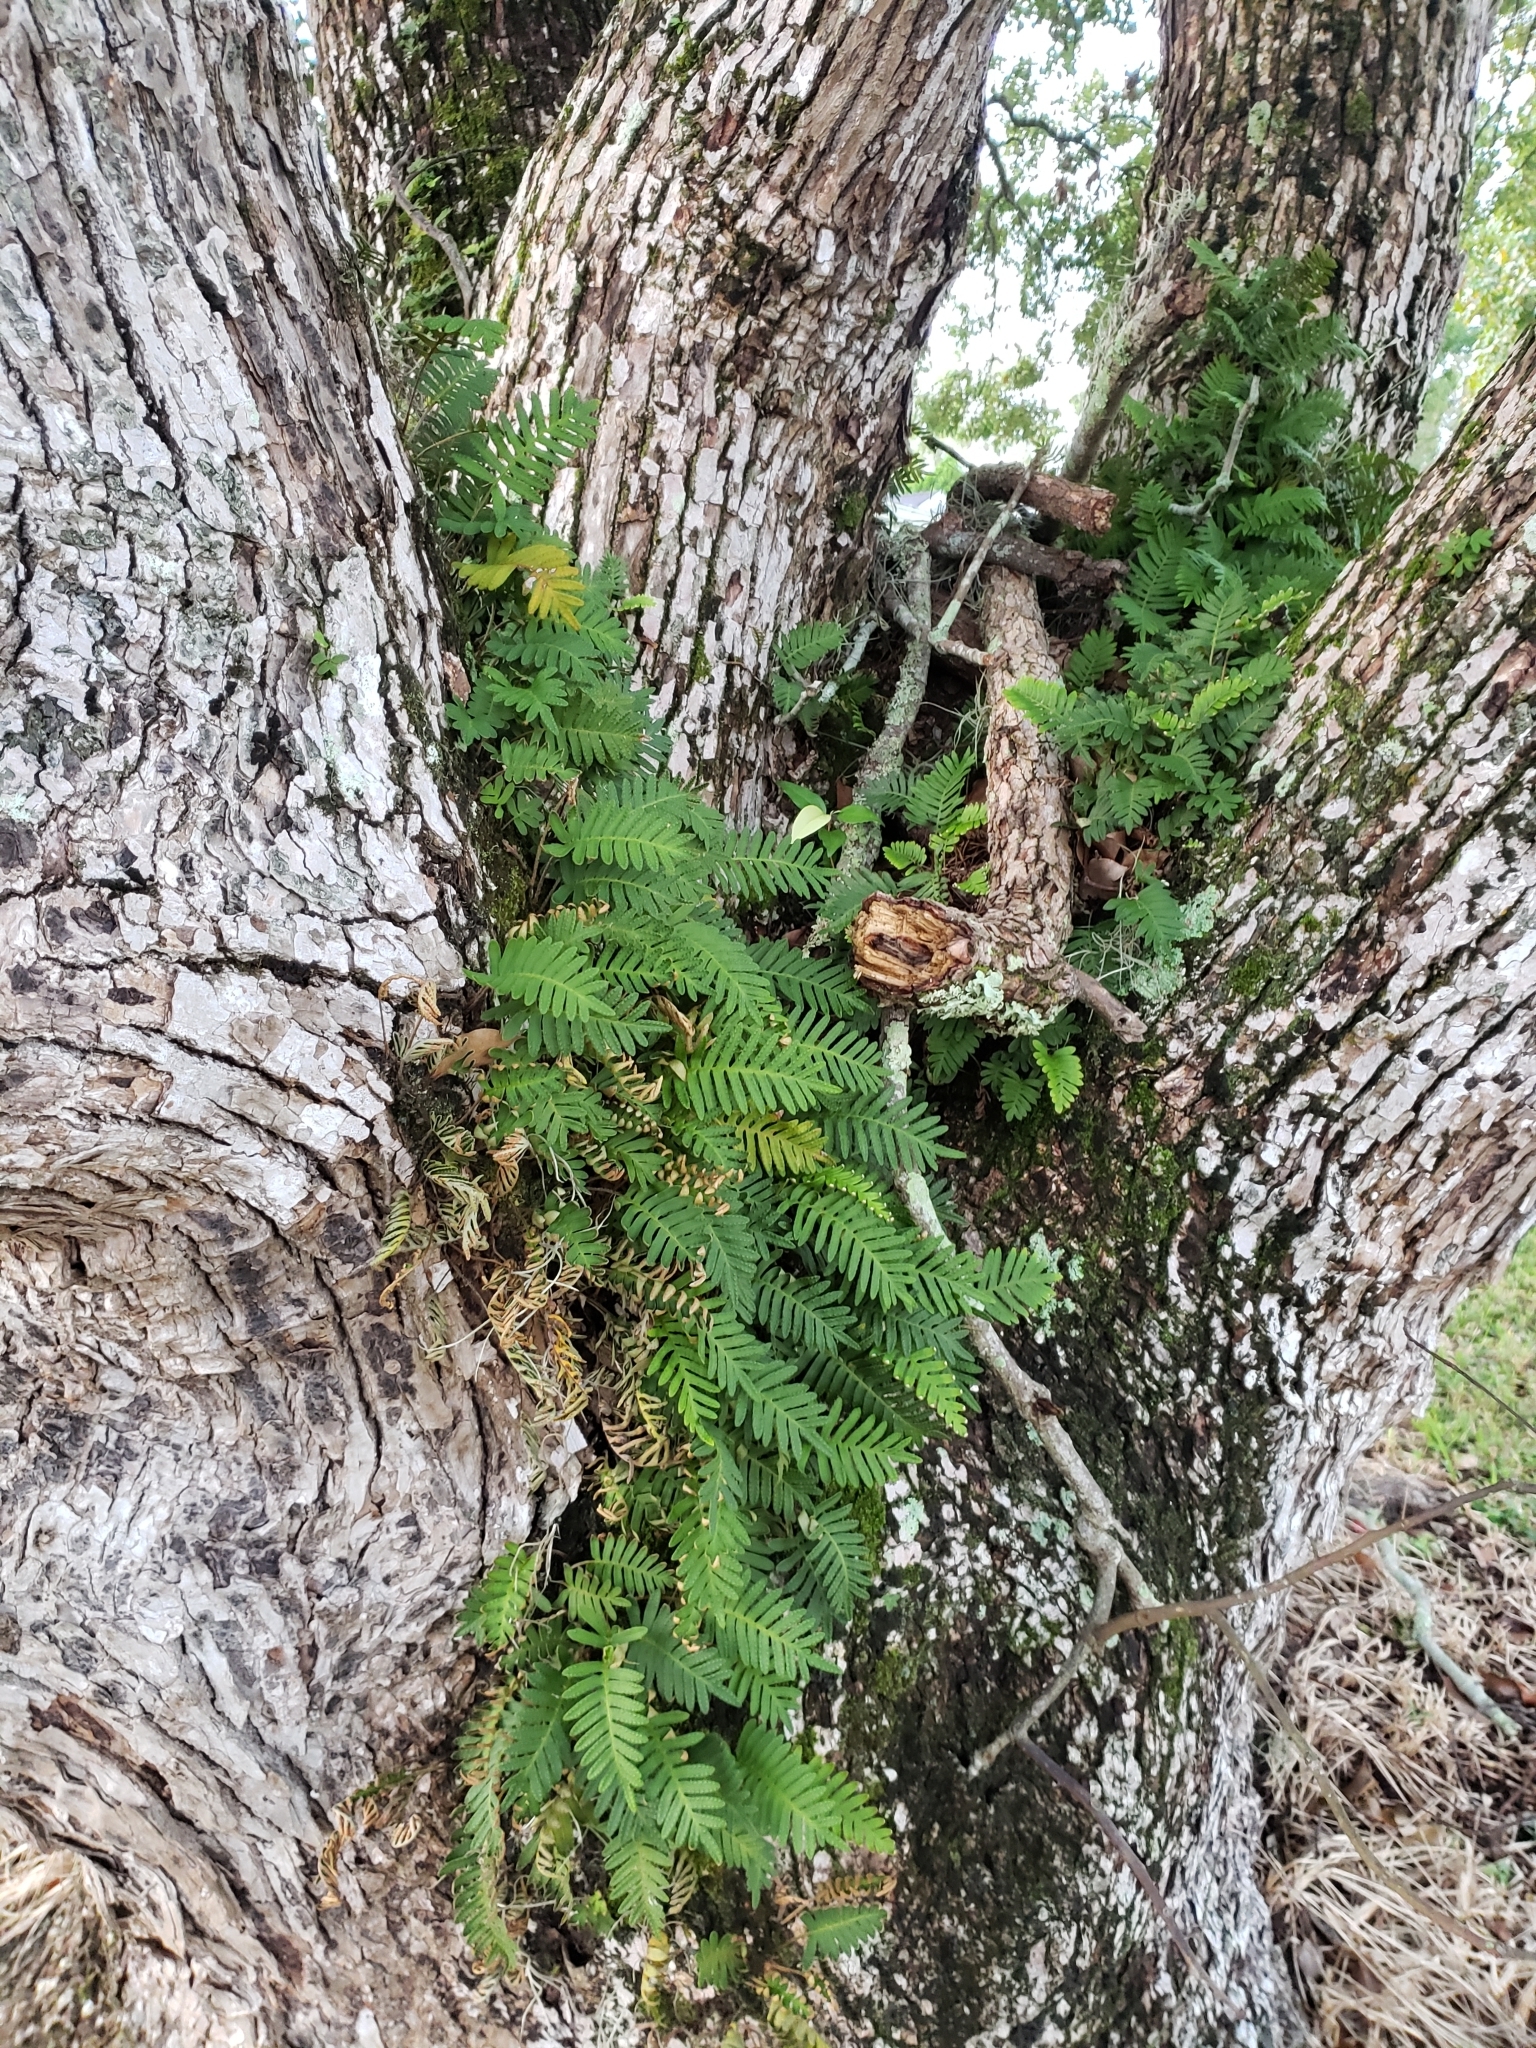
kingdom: Plantae
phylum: Tracheophyta
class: Polypodiopsida
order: Polypodiales
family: Polypodiaceae
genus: Pleopeltis
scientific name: Pleopeltis michauxiana
